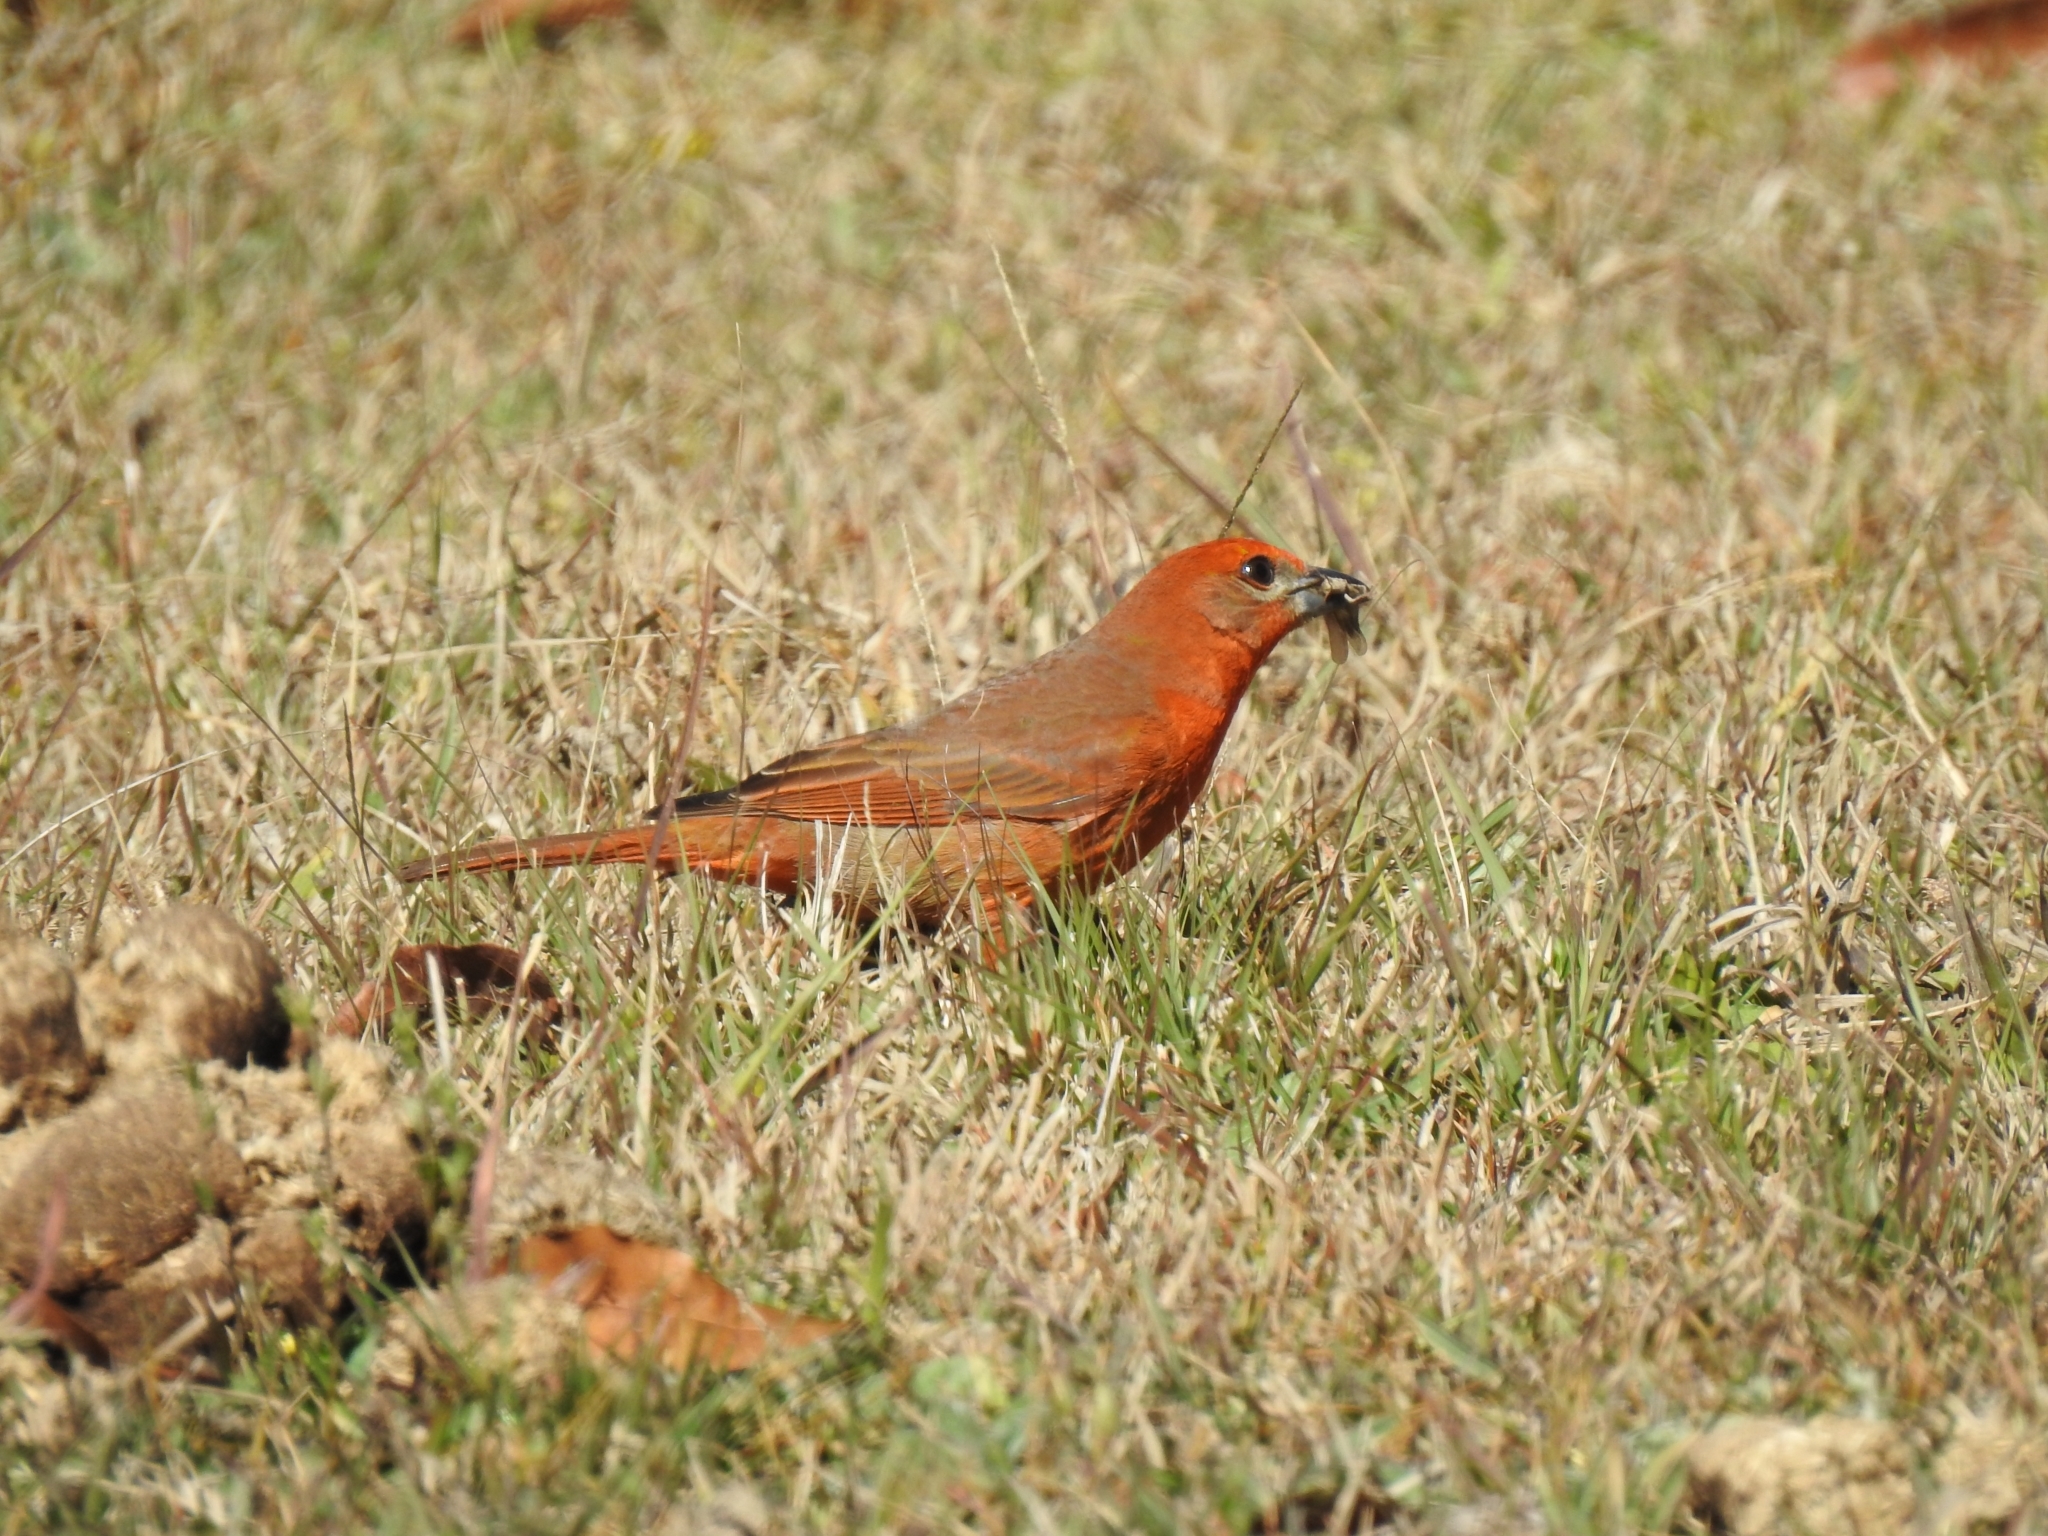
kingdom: Animalia
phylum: Chordata
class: Aves
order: Passeriformes
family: Cardinalidae
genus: Piranga
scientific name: Piranga flava
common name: Red tanager
